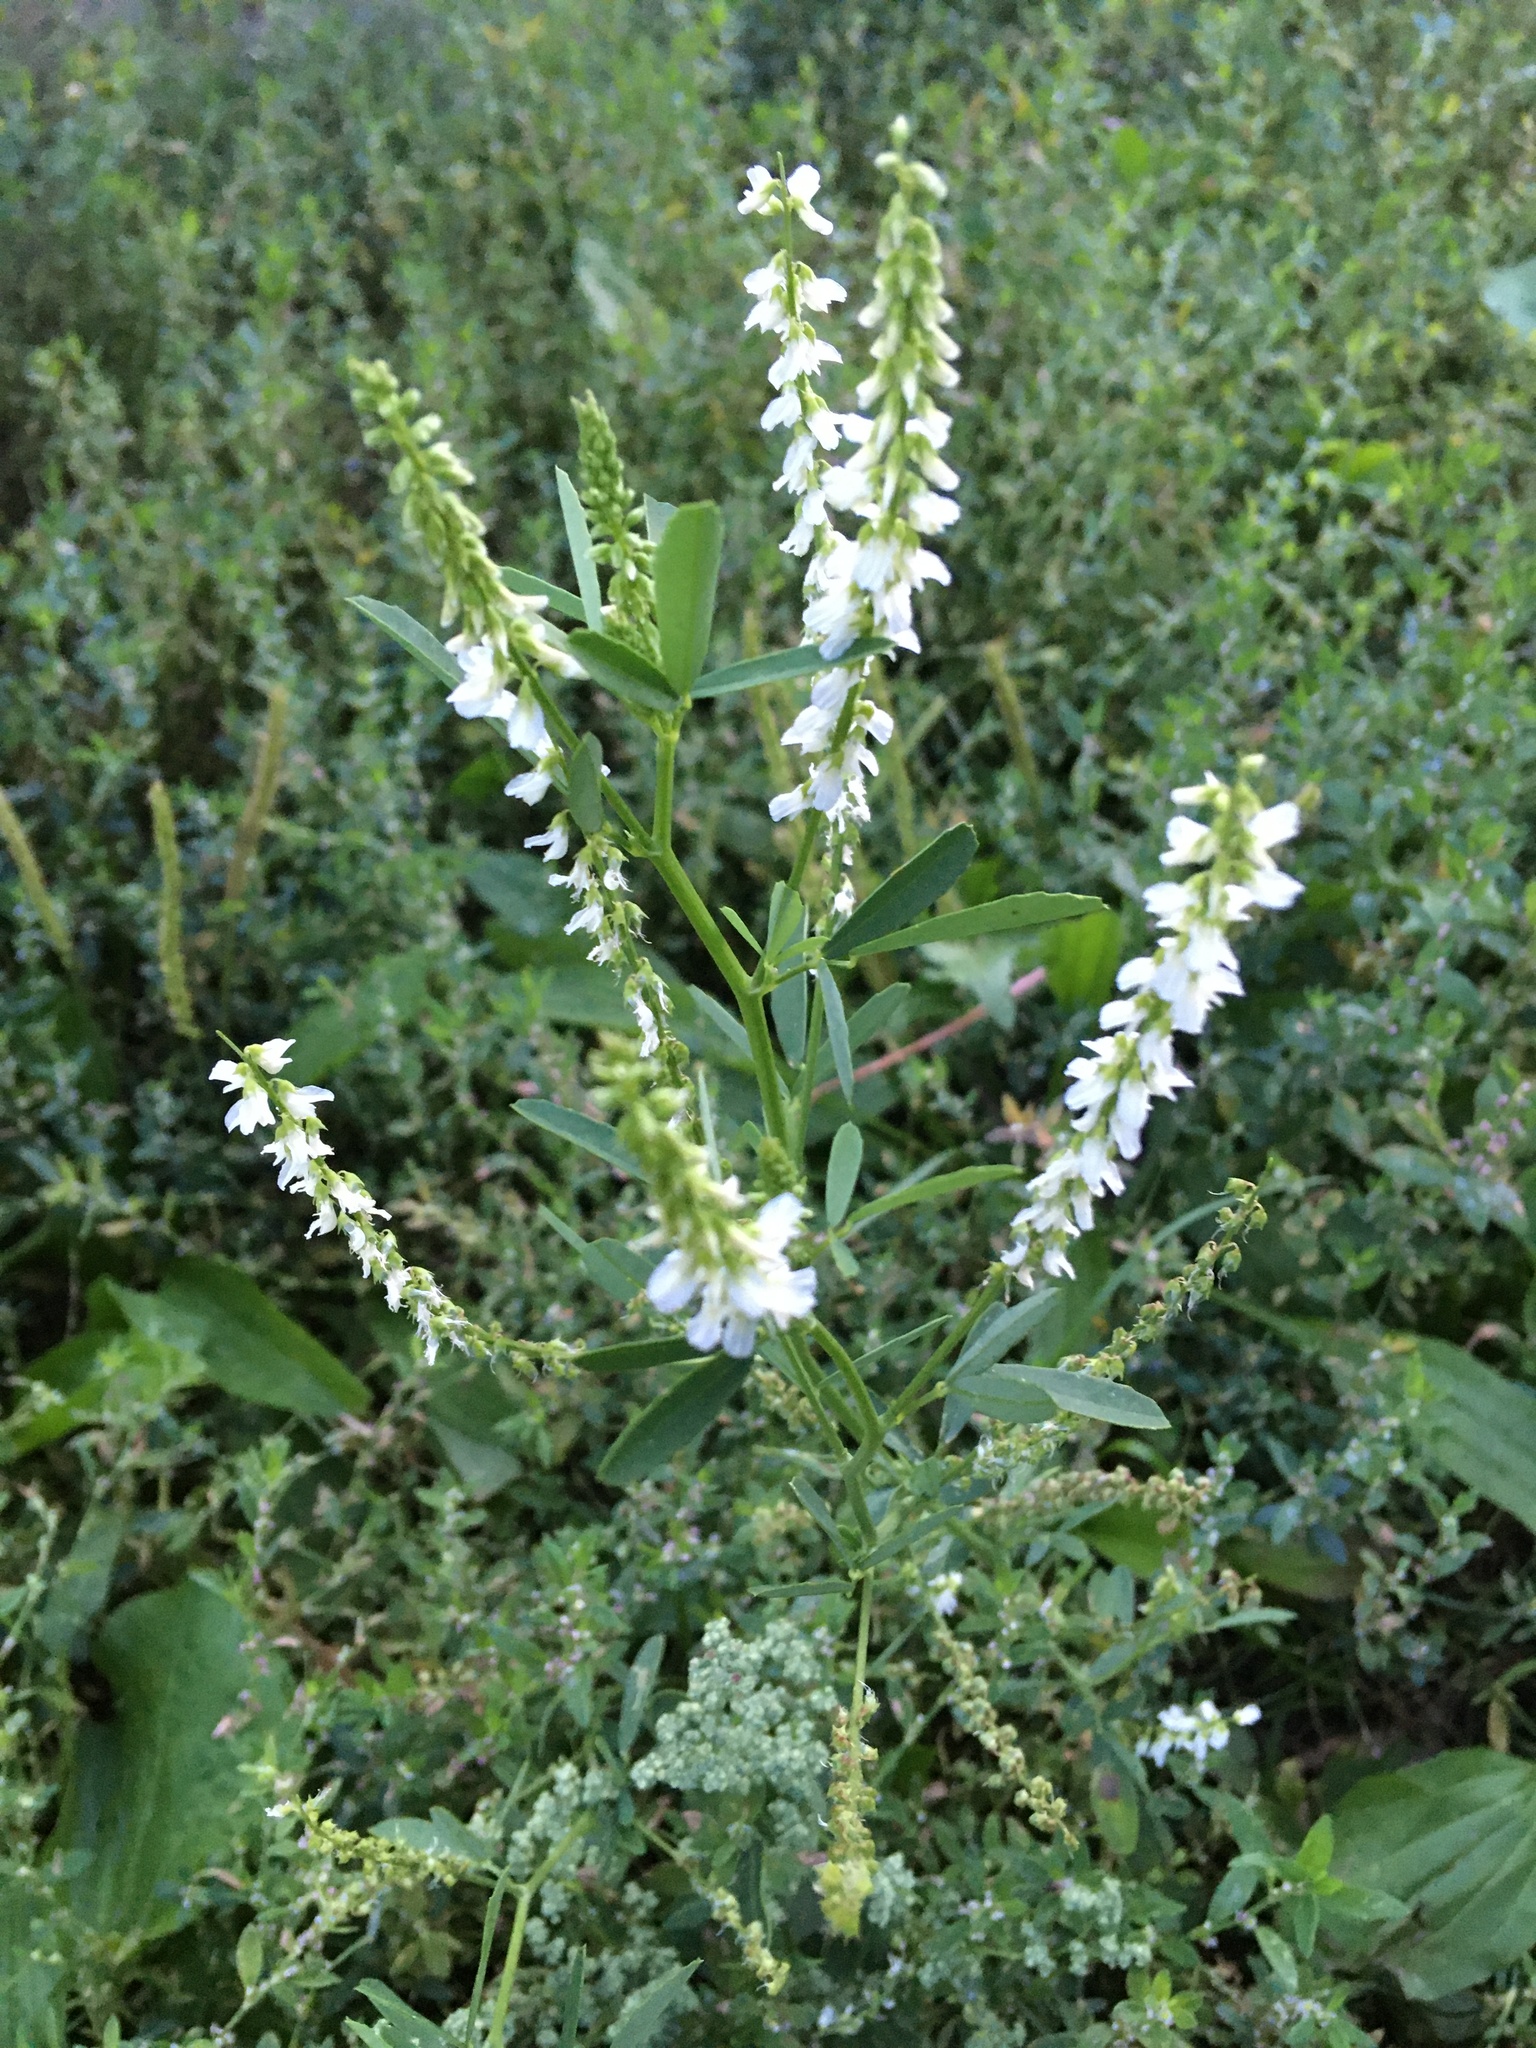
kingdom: Plantae
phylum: Tracheophyta
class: Magnoliopsida
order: Fabales
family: Fabaceae
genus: Melilotus
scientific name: Melilotus albus
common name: White melilot
